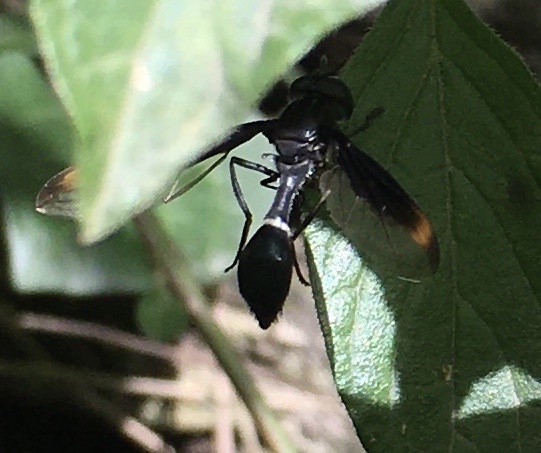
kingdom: Animalia
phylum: Arthropoda
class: Insecta
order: Diptera
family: Syrphidae
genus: Mimocalla
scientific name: Mimocalla giganteus
